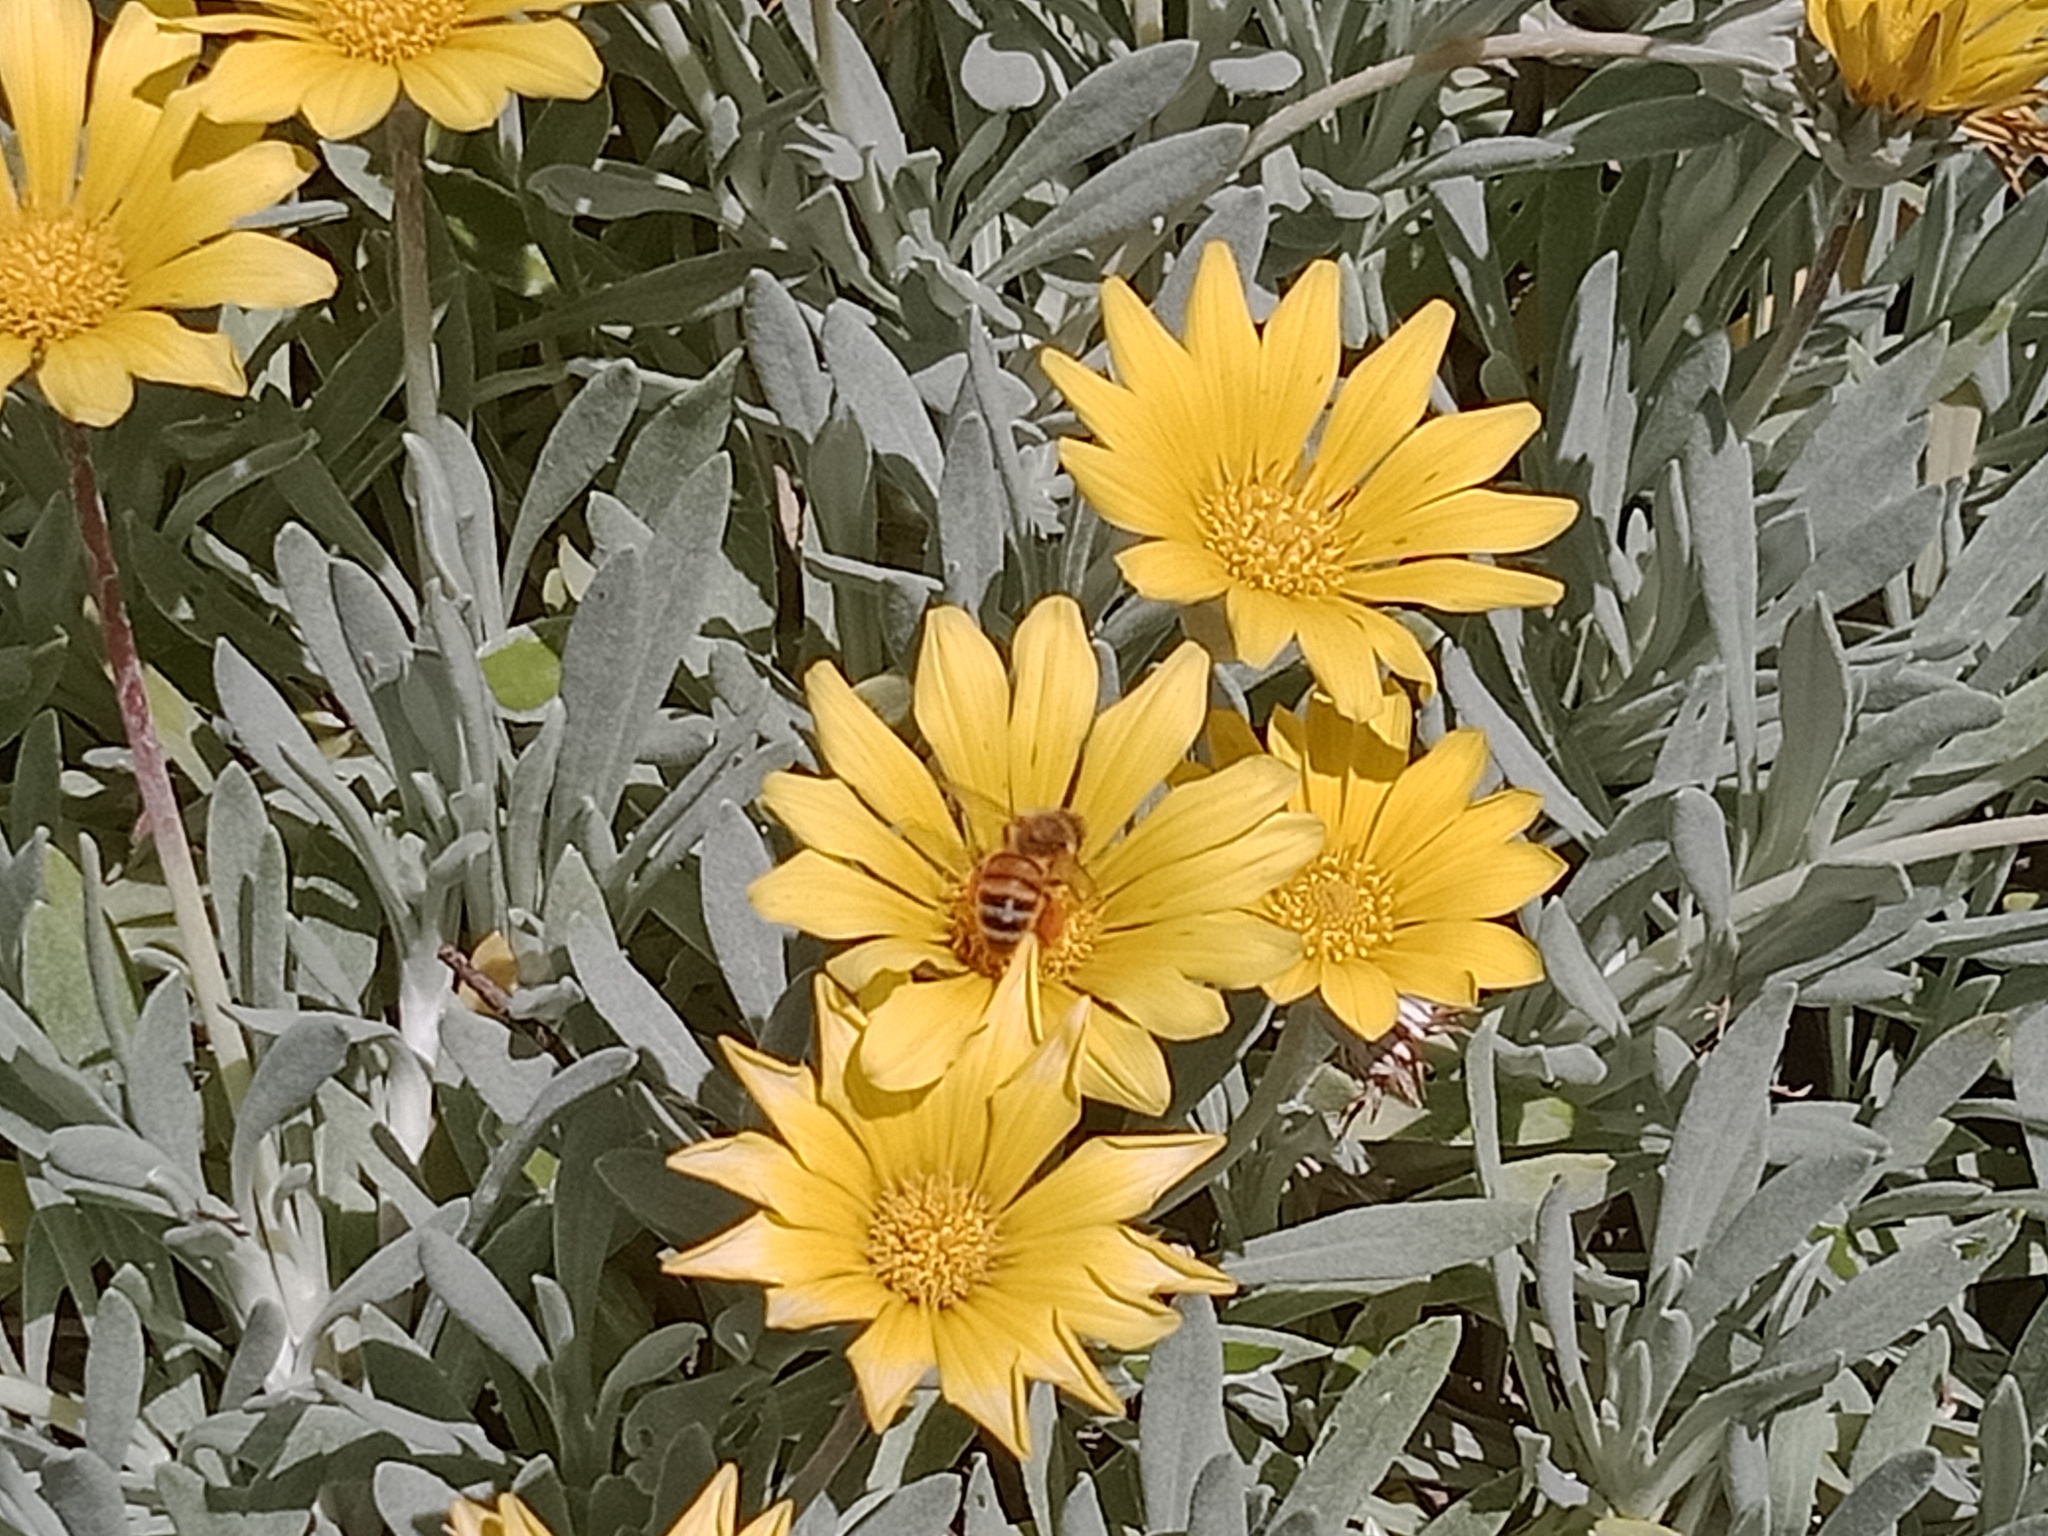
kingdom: Animalia
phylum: Arthropoda
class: Insecta
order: Hymenoptera
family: Apidae
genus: Apis
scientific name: Apis mellifera
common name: Honey bee
